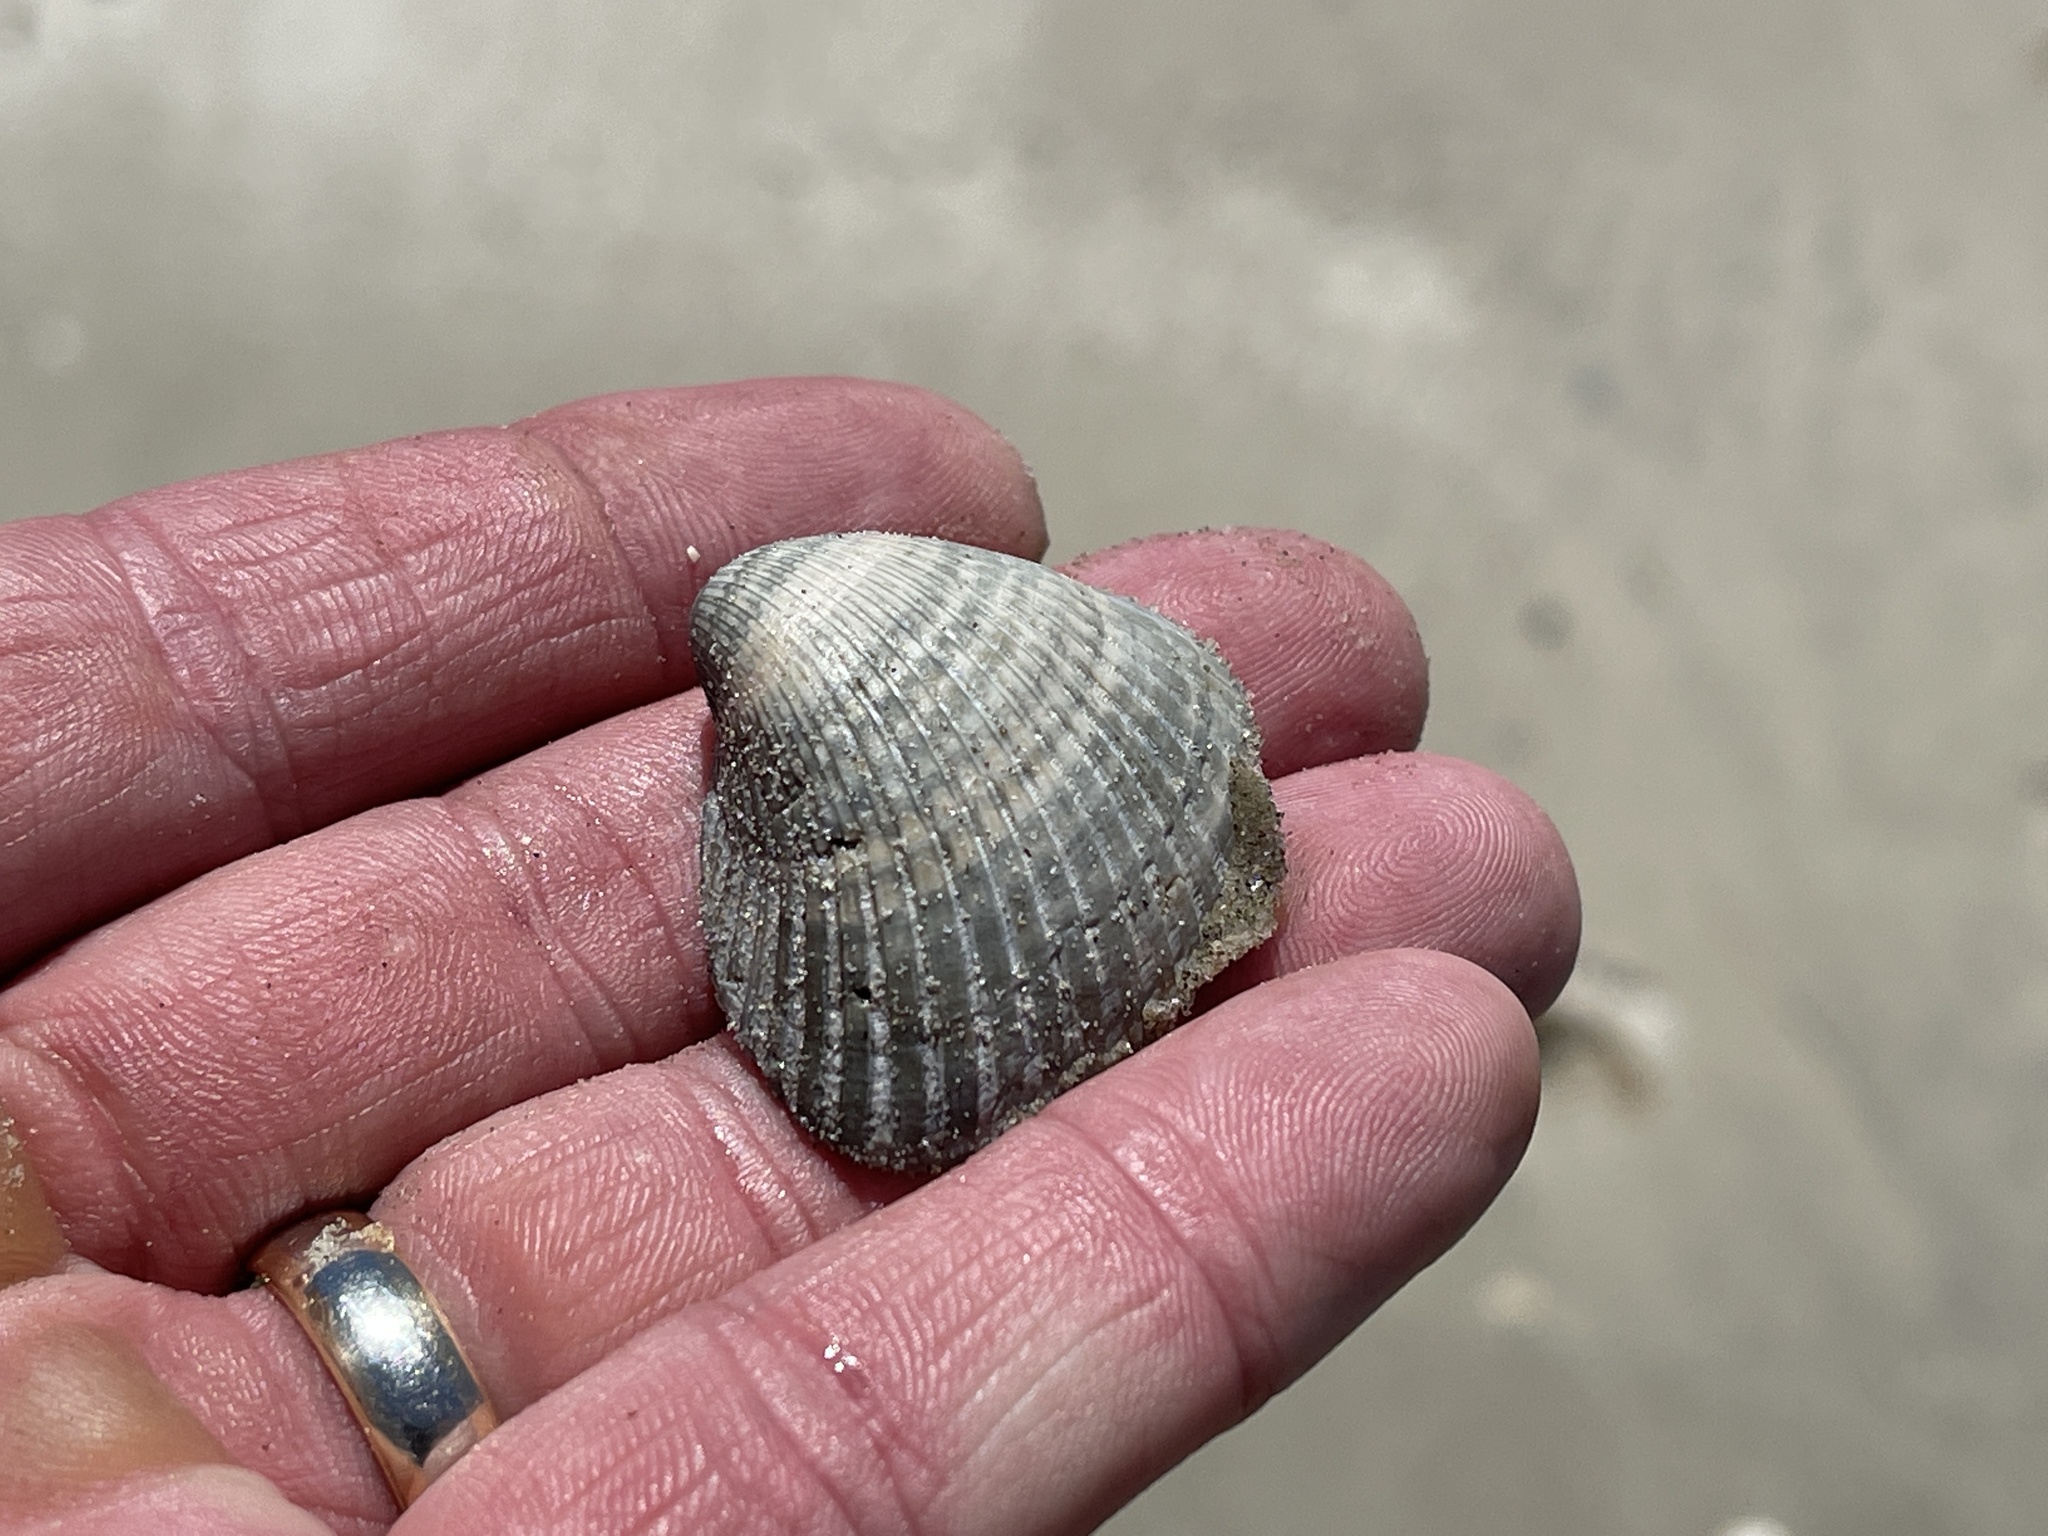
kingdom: Animalia
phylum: Mollusca
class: Bivalvia
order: Arcida
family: Noetiidae
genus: Noetia
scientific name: Noetia ponderosa
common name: Ponderous ark
